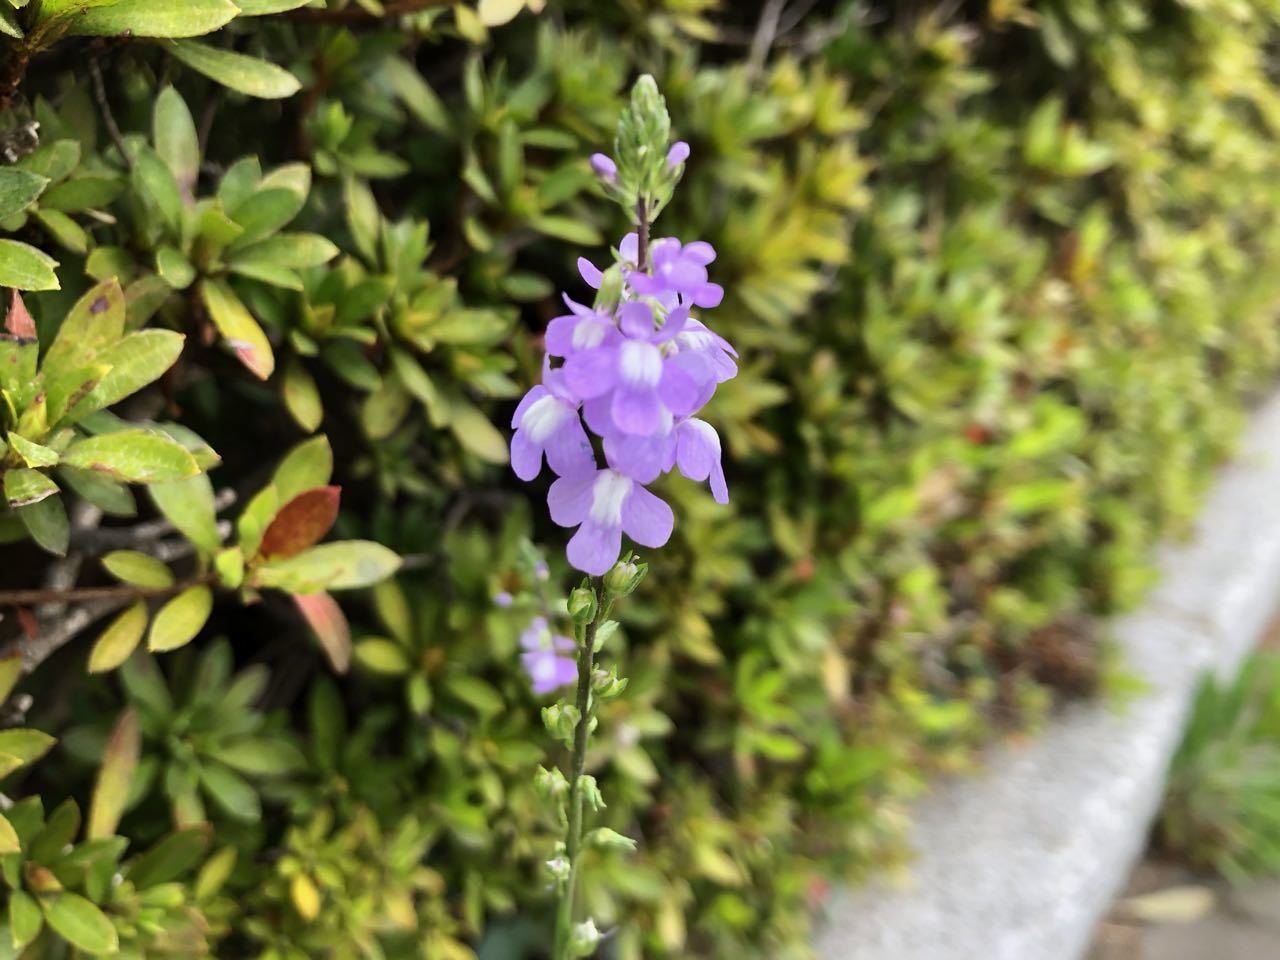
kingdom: Plantae
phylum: Tracheophyta
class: Magnoliopsida
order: Lamiales
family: Plantaginaceae
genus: Nuttallanthus
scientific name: Nuttallanthus canadensis
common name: Blue toadflax
